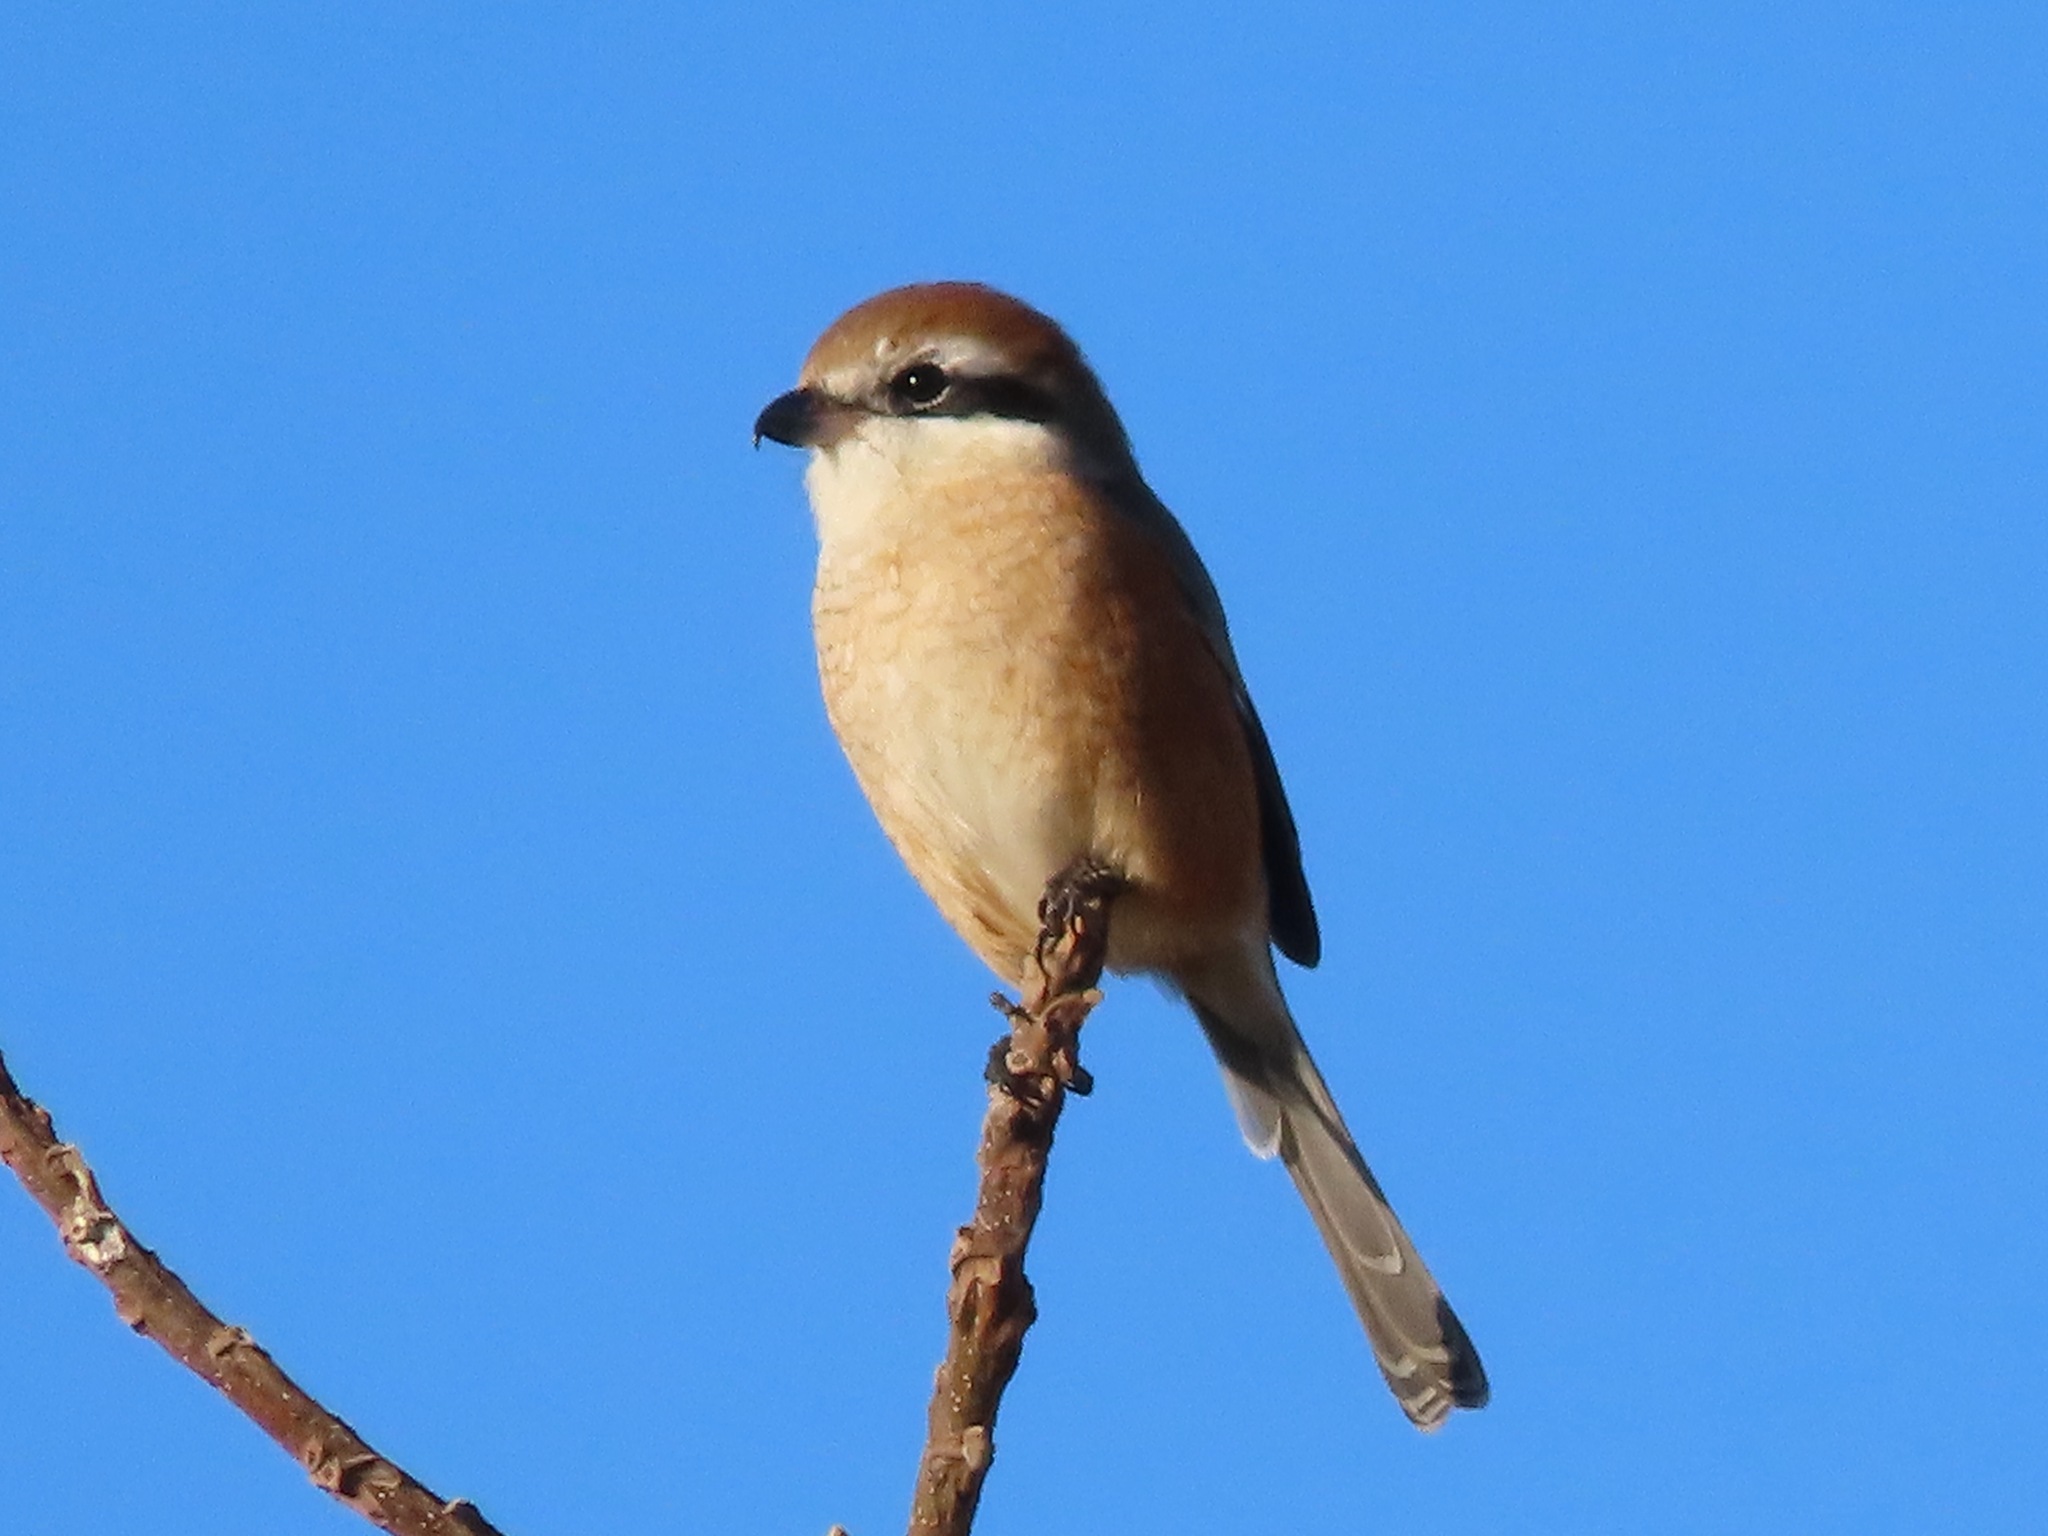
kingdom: Animalia
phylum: Chordata
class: Aves
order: Passeriformes
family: Laniidae
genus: Lanius
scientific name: Lanius bucephalus
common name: Bull-headed shrike
